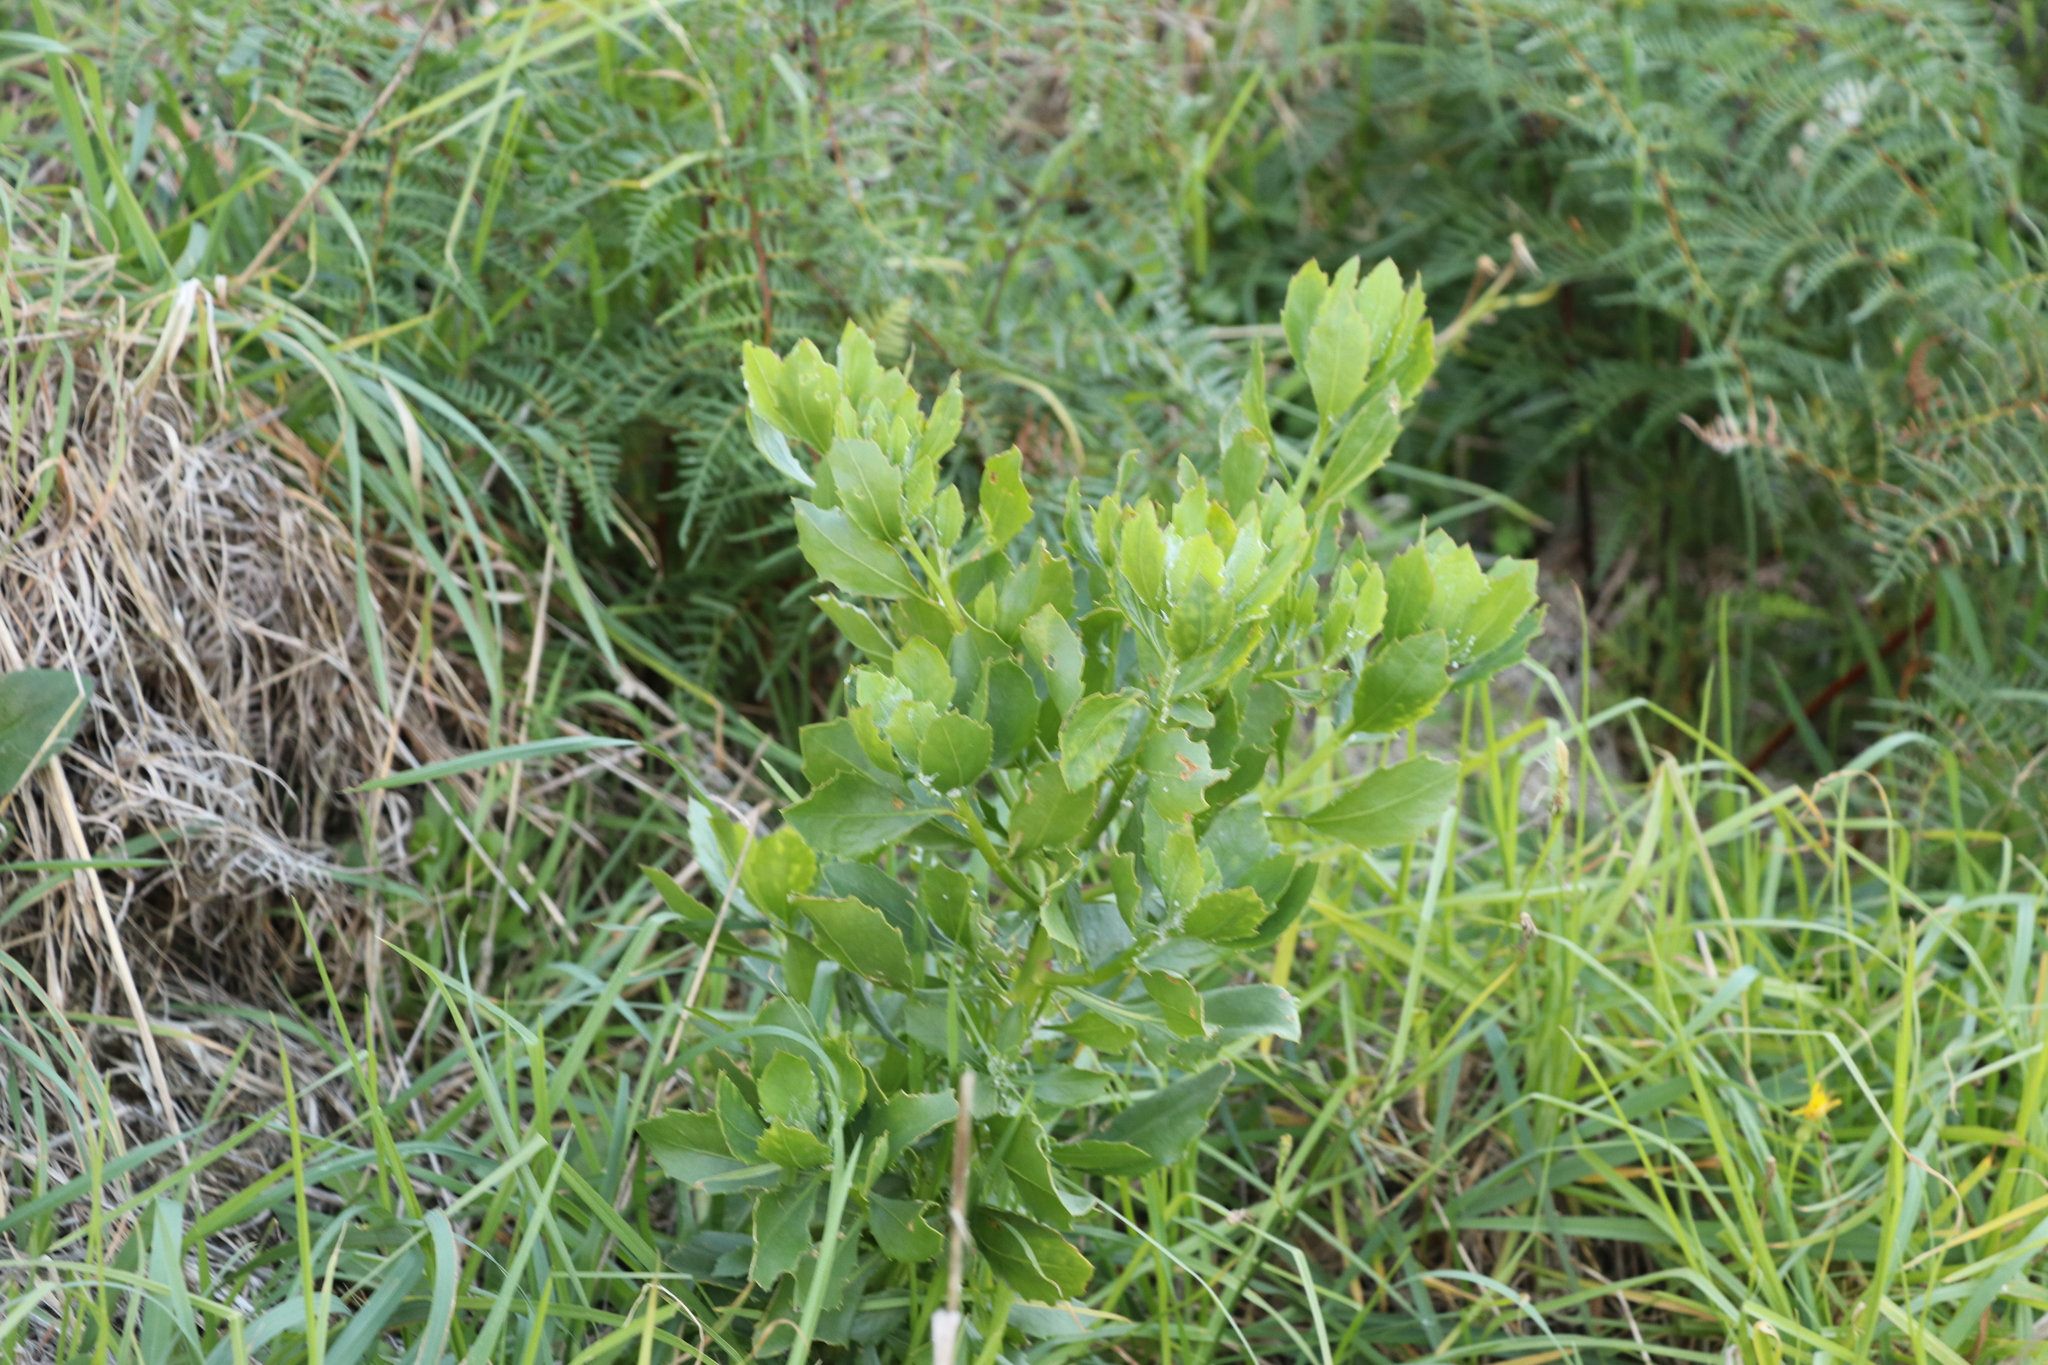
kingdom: Plantae
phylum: Tracheophyta
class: Magnoliopsida
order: Asterales
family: Asteraceae
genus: Osteospermum
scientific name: Osteospermum moniliferum
